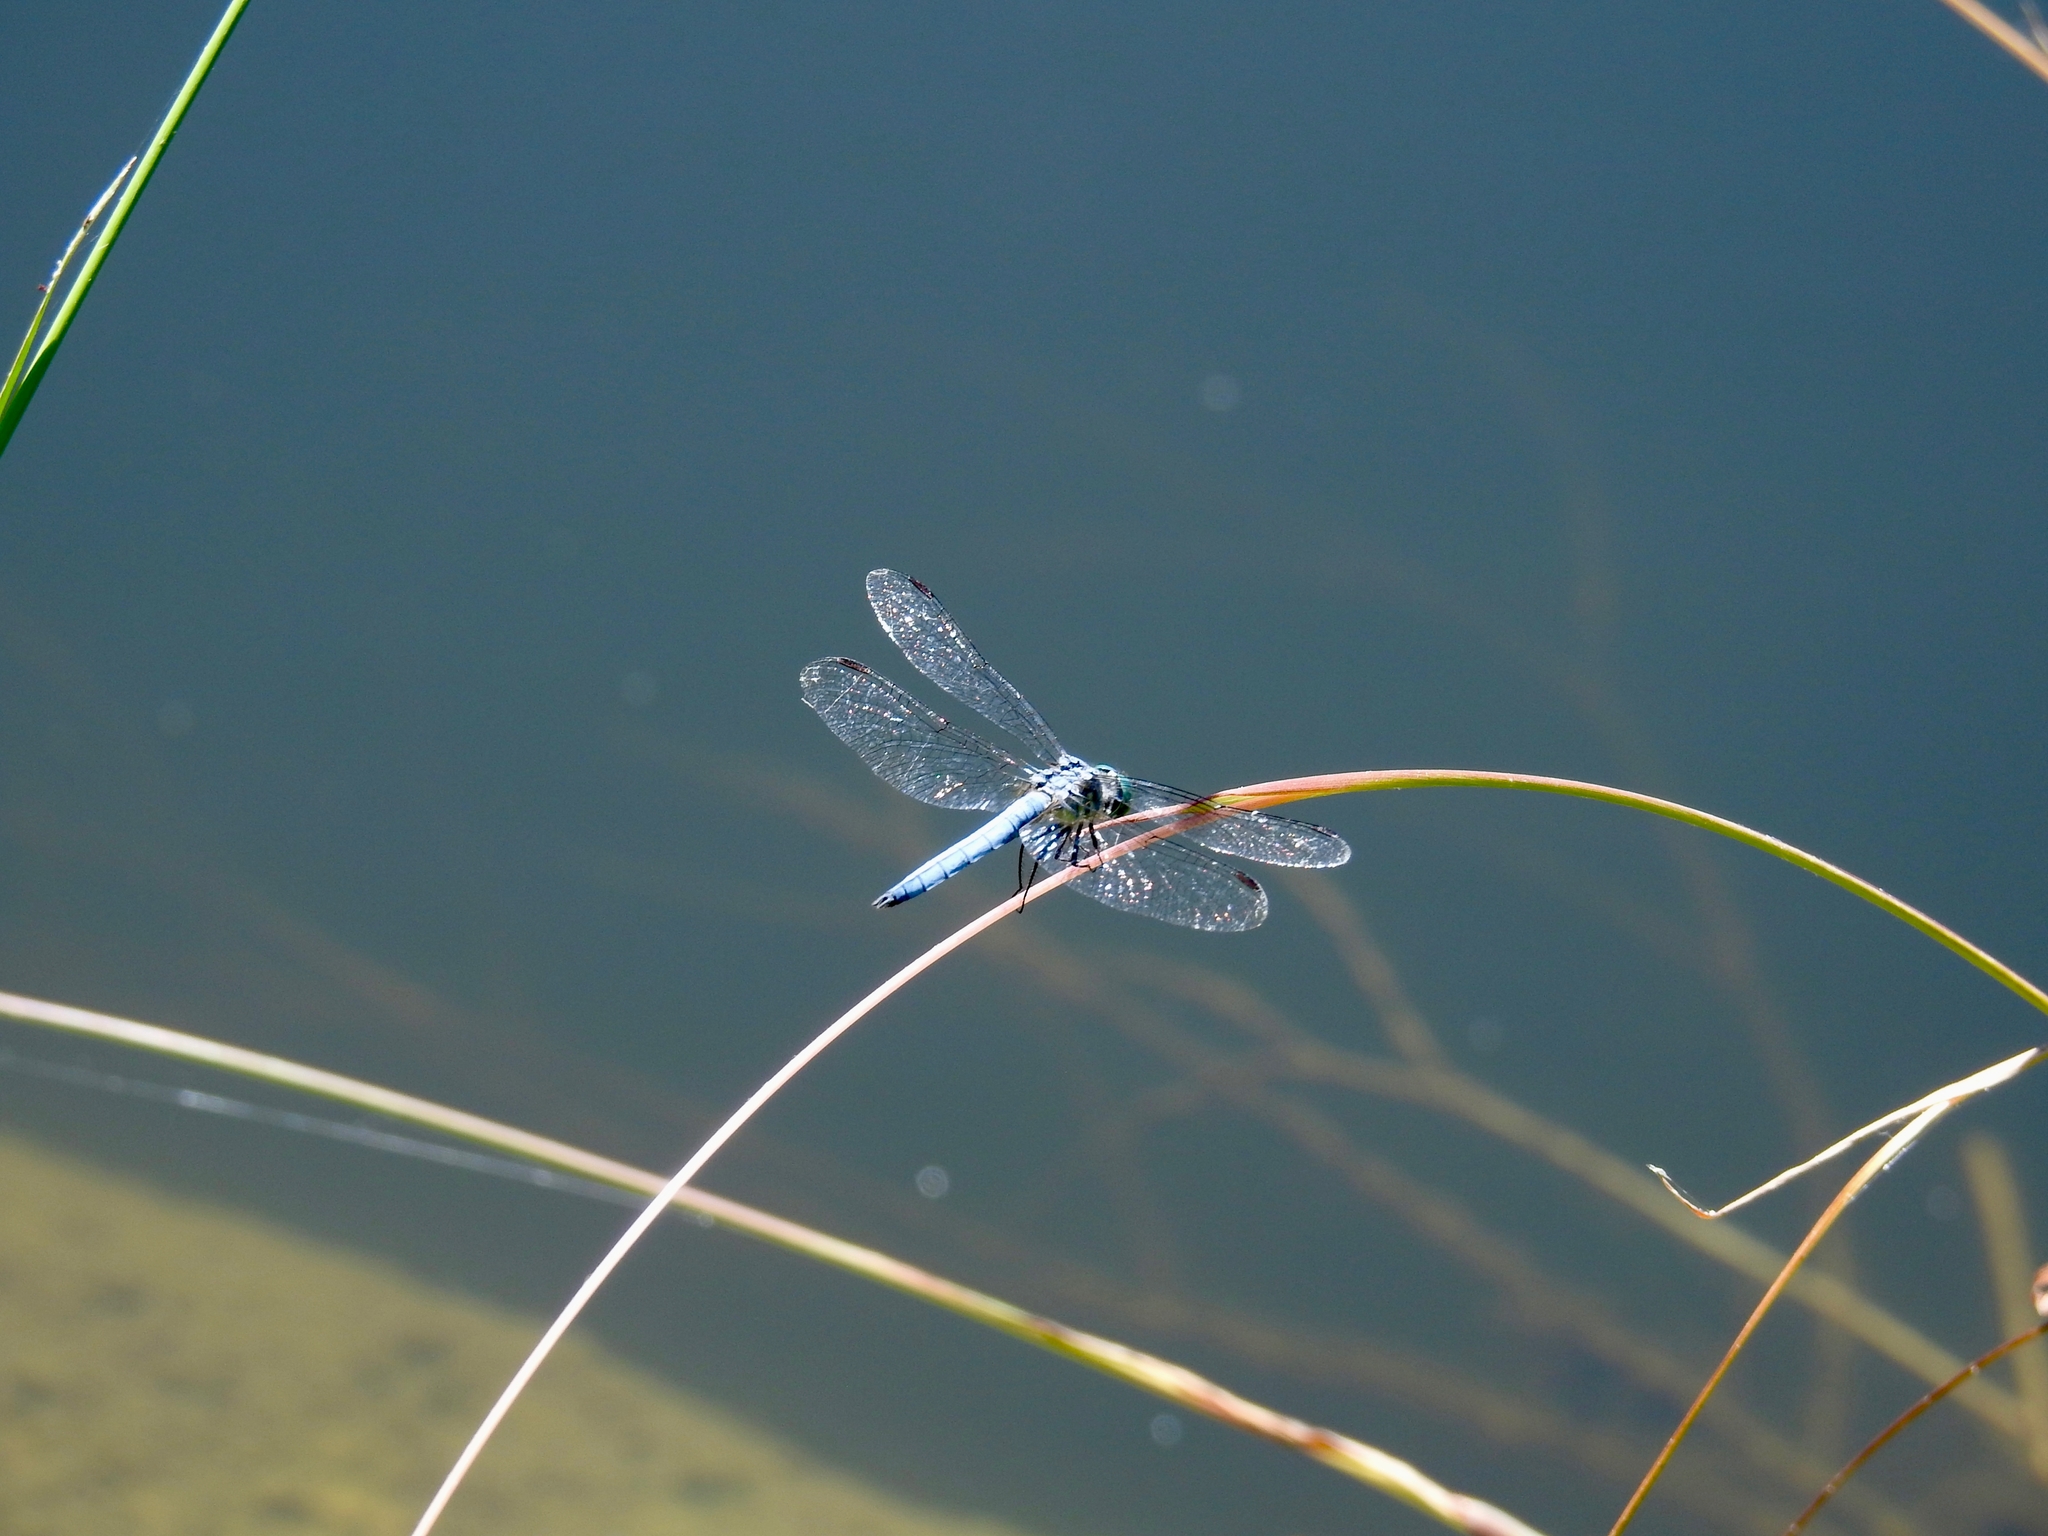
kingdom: Animalia
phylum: Arthropoda
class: Insecta
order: Odonata
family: Libellulidae
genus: Pachydiplax
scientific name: Pachydiplax longipennis
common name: Blue dasher
